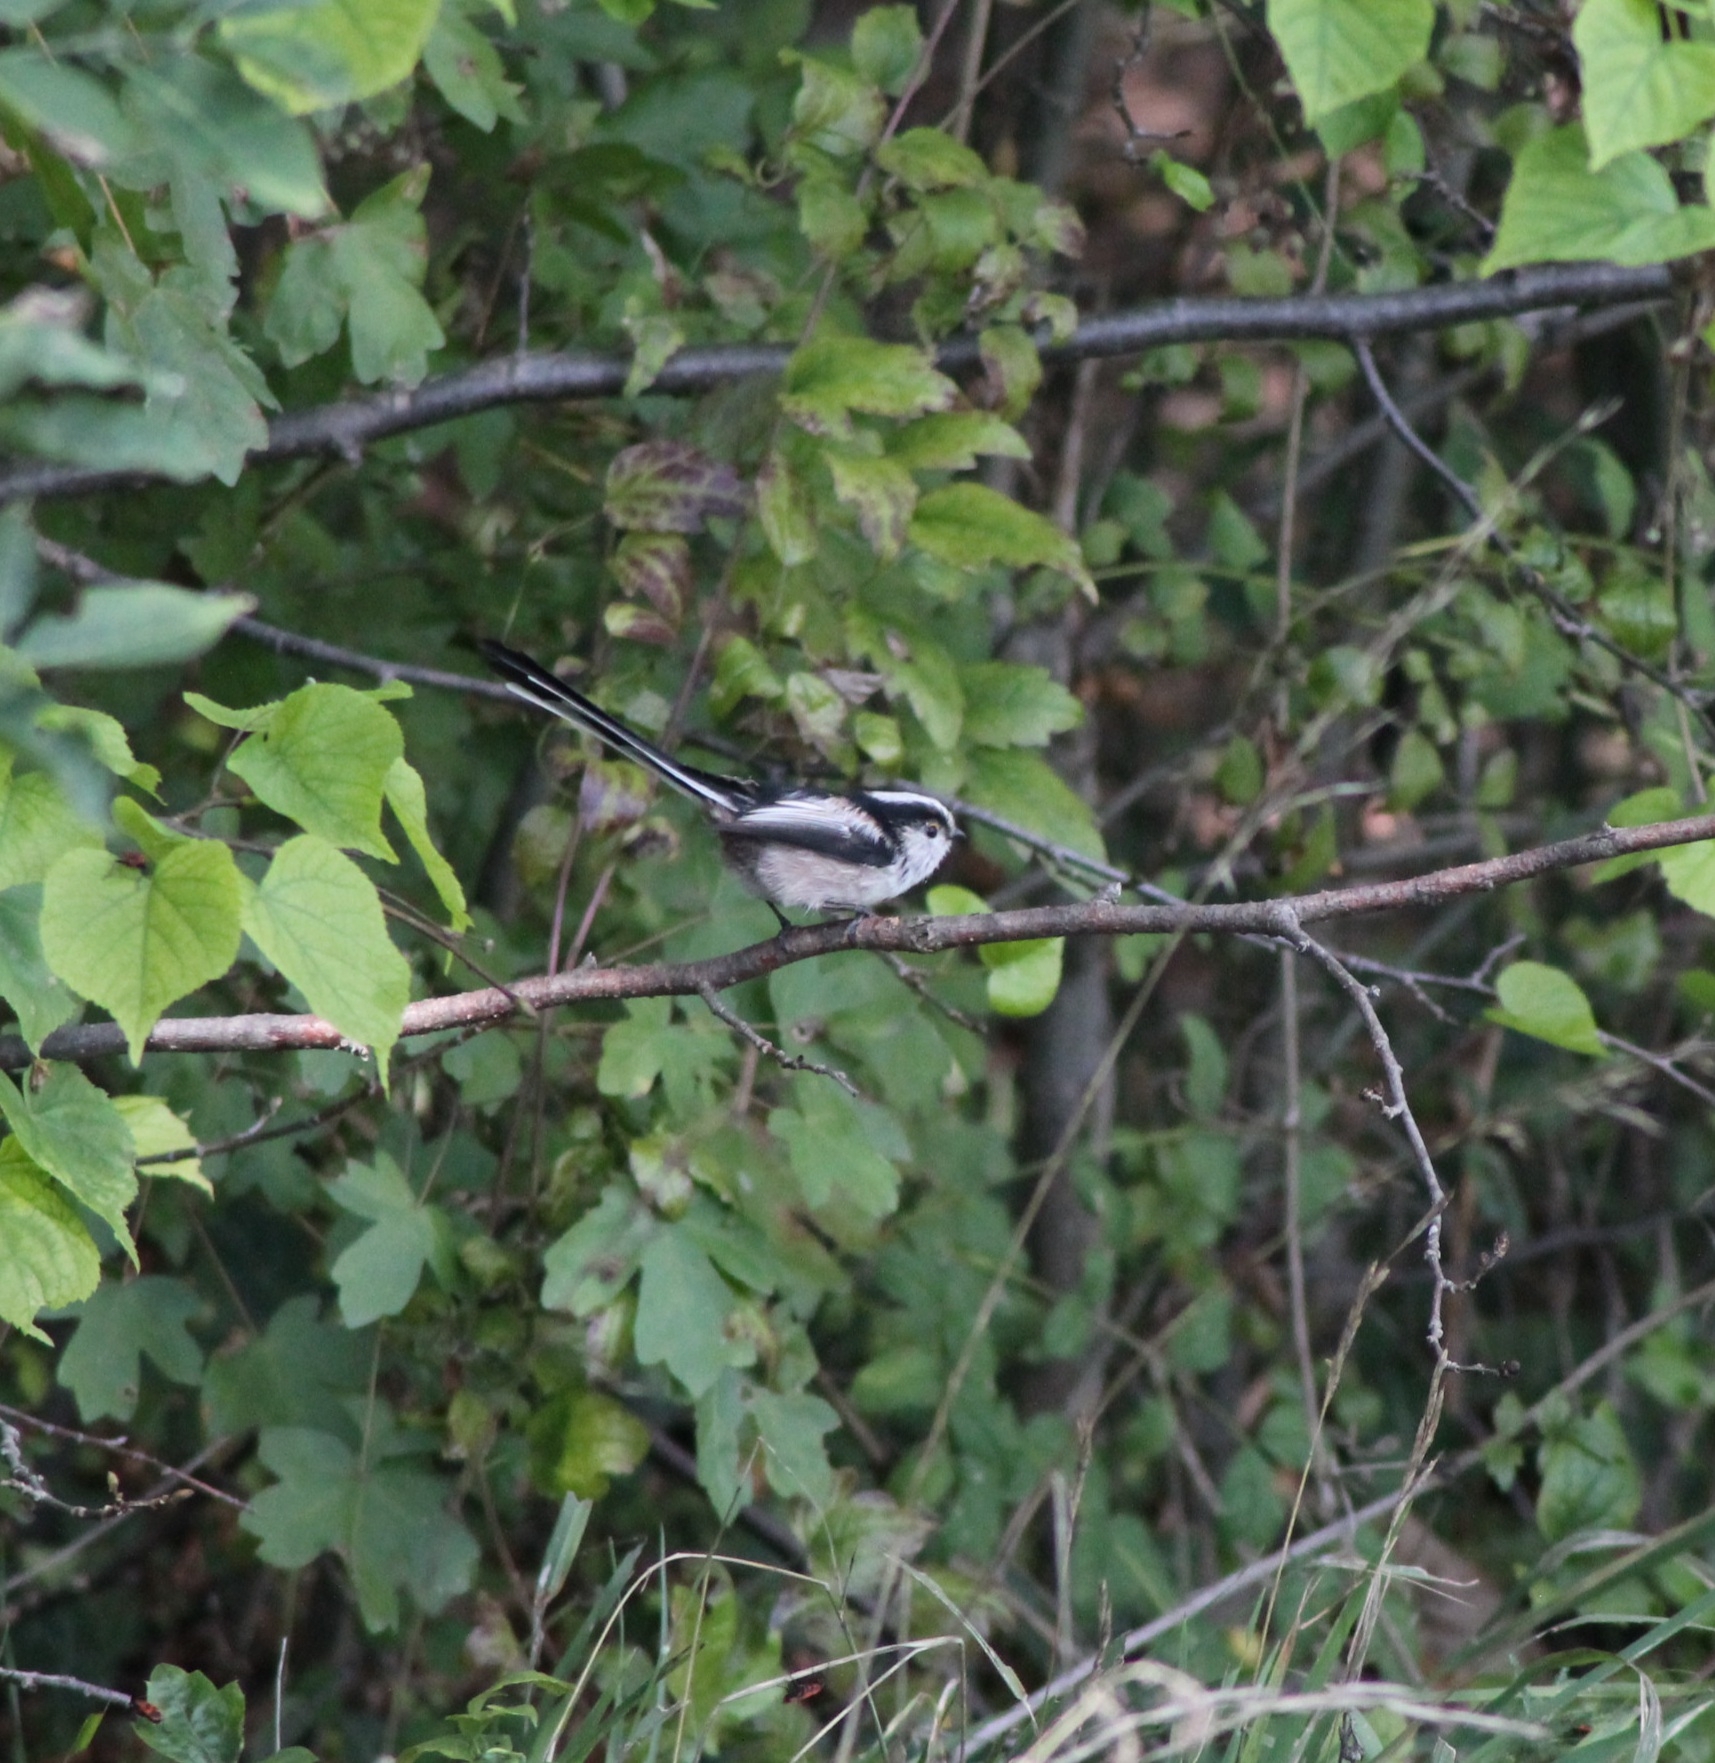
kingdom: Animalia
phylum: Chordata
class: Aves
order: Passeriformes
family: Aegithalidae
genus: Aegithalos
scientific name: Aegithalos caudatus
